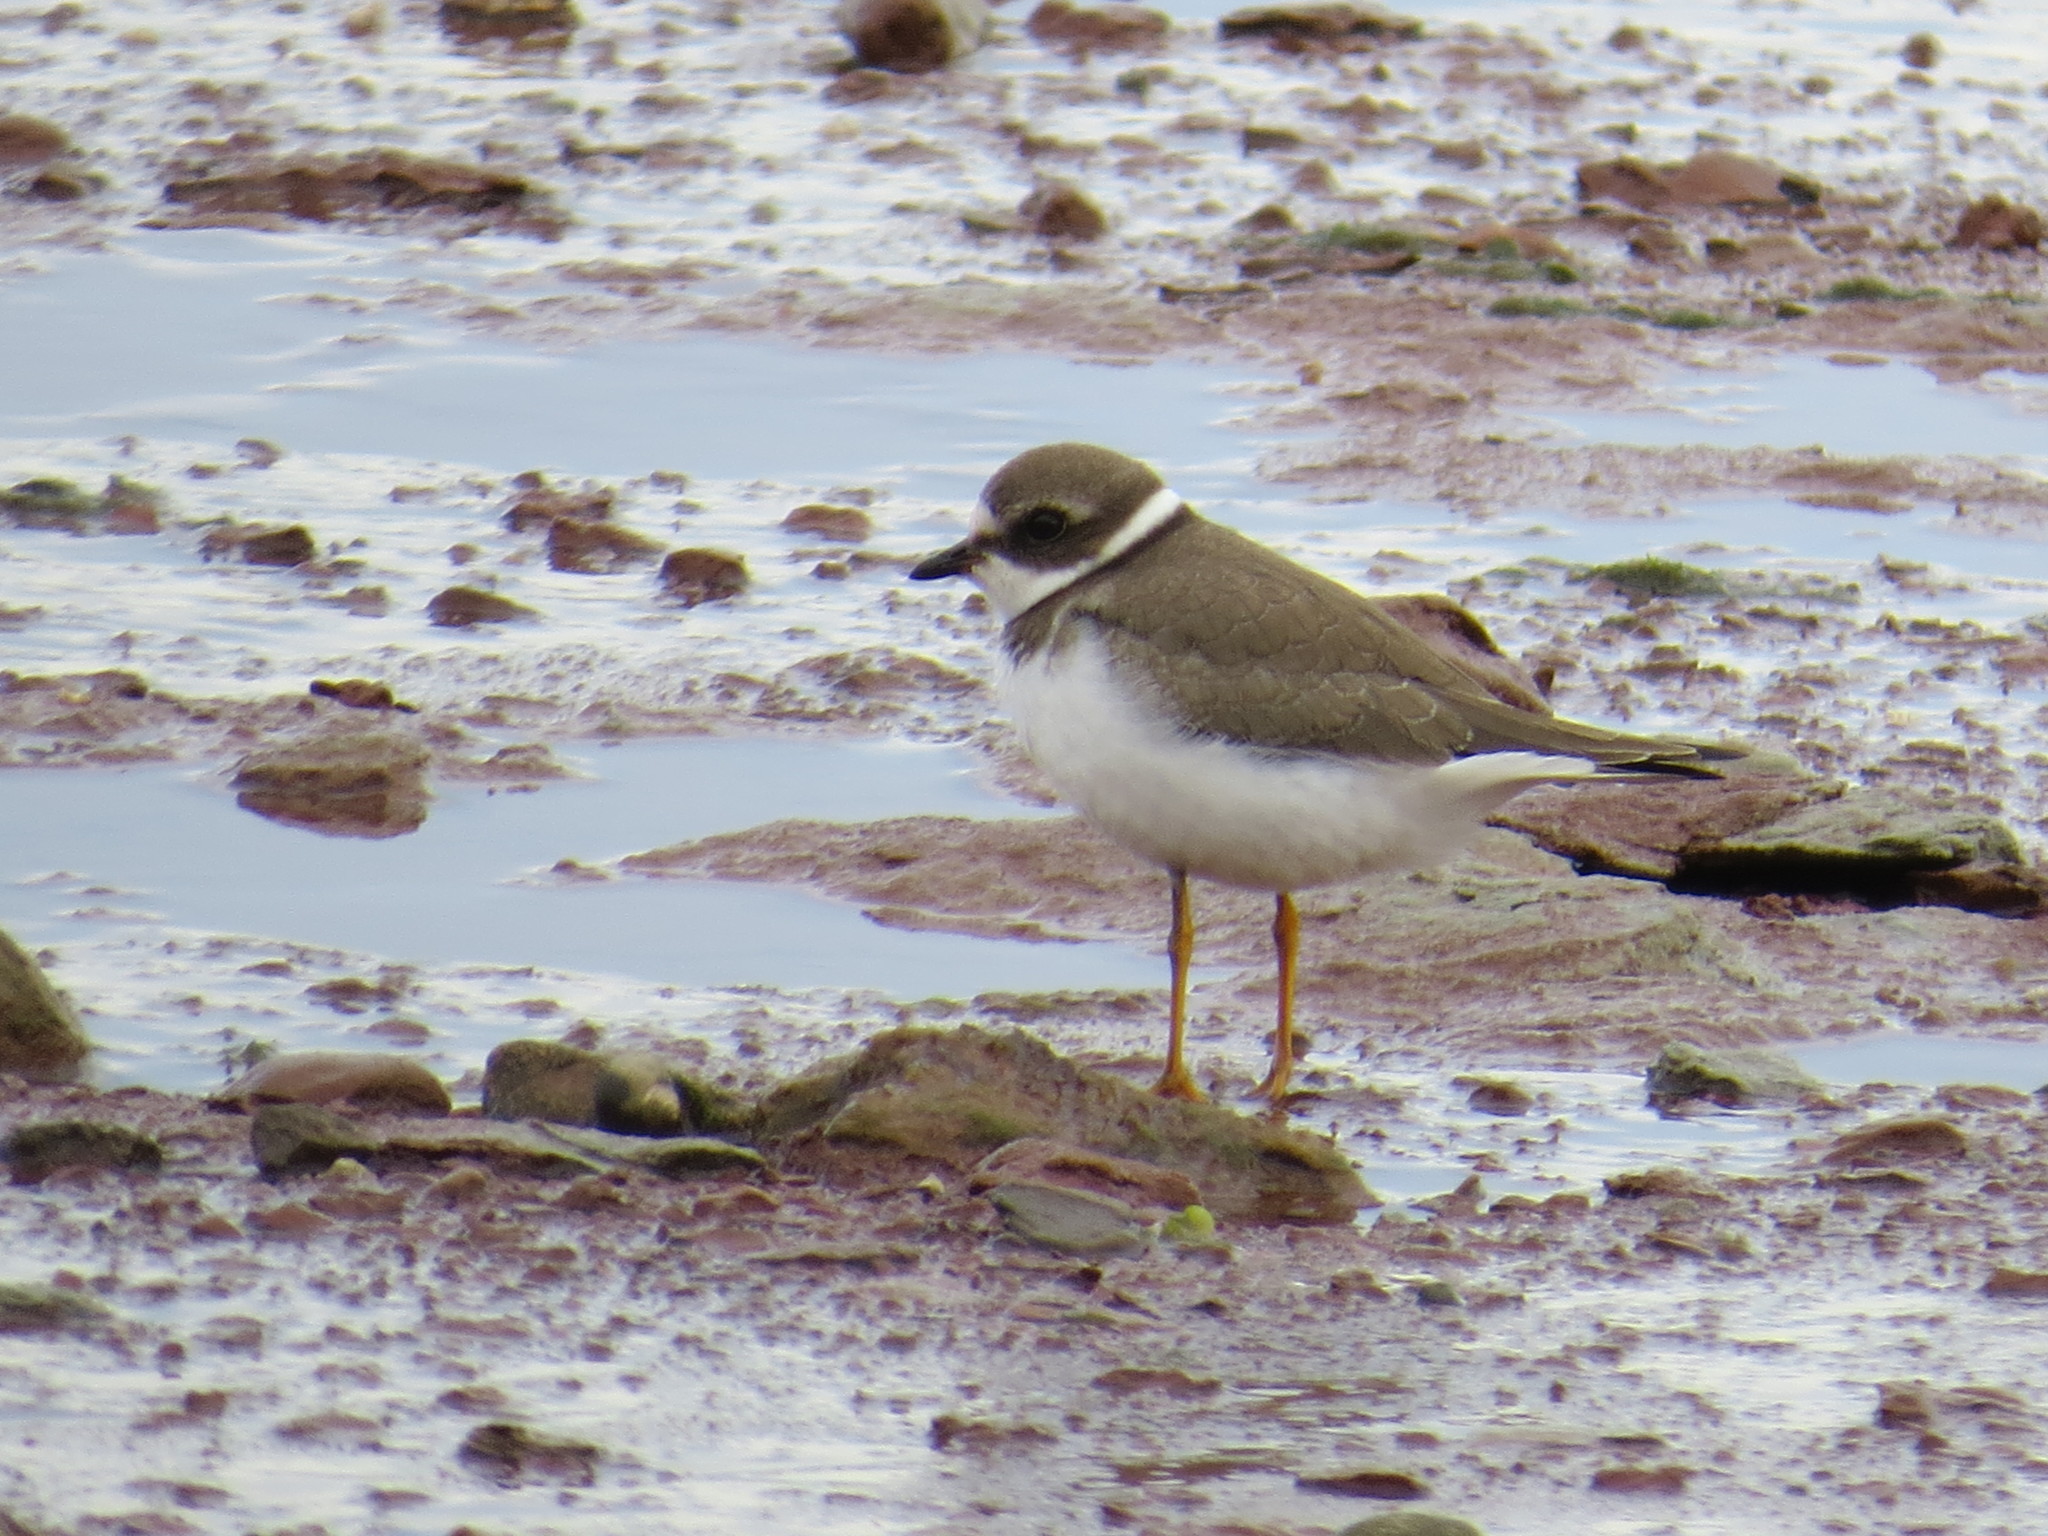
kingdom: Animalia
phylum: Chordata
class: Aves
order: Charadriiformes
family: Charadriidae
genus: Charadrius
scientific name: Charadrius semipalmatus
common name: Semipalmated plover
